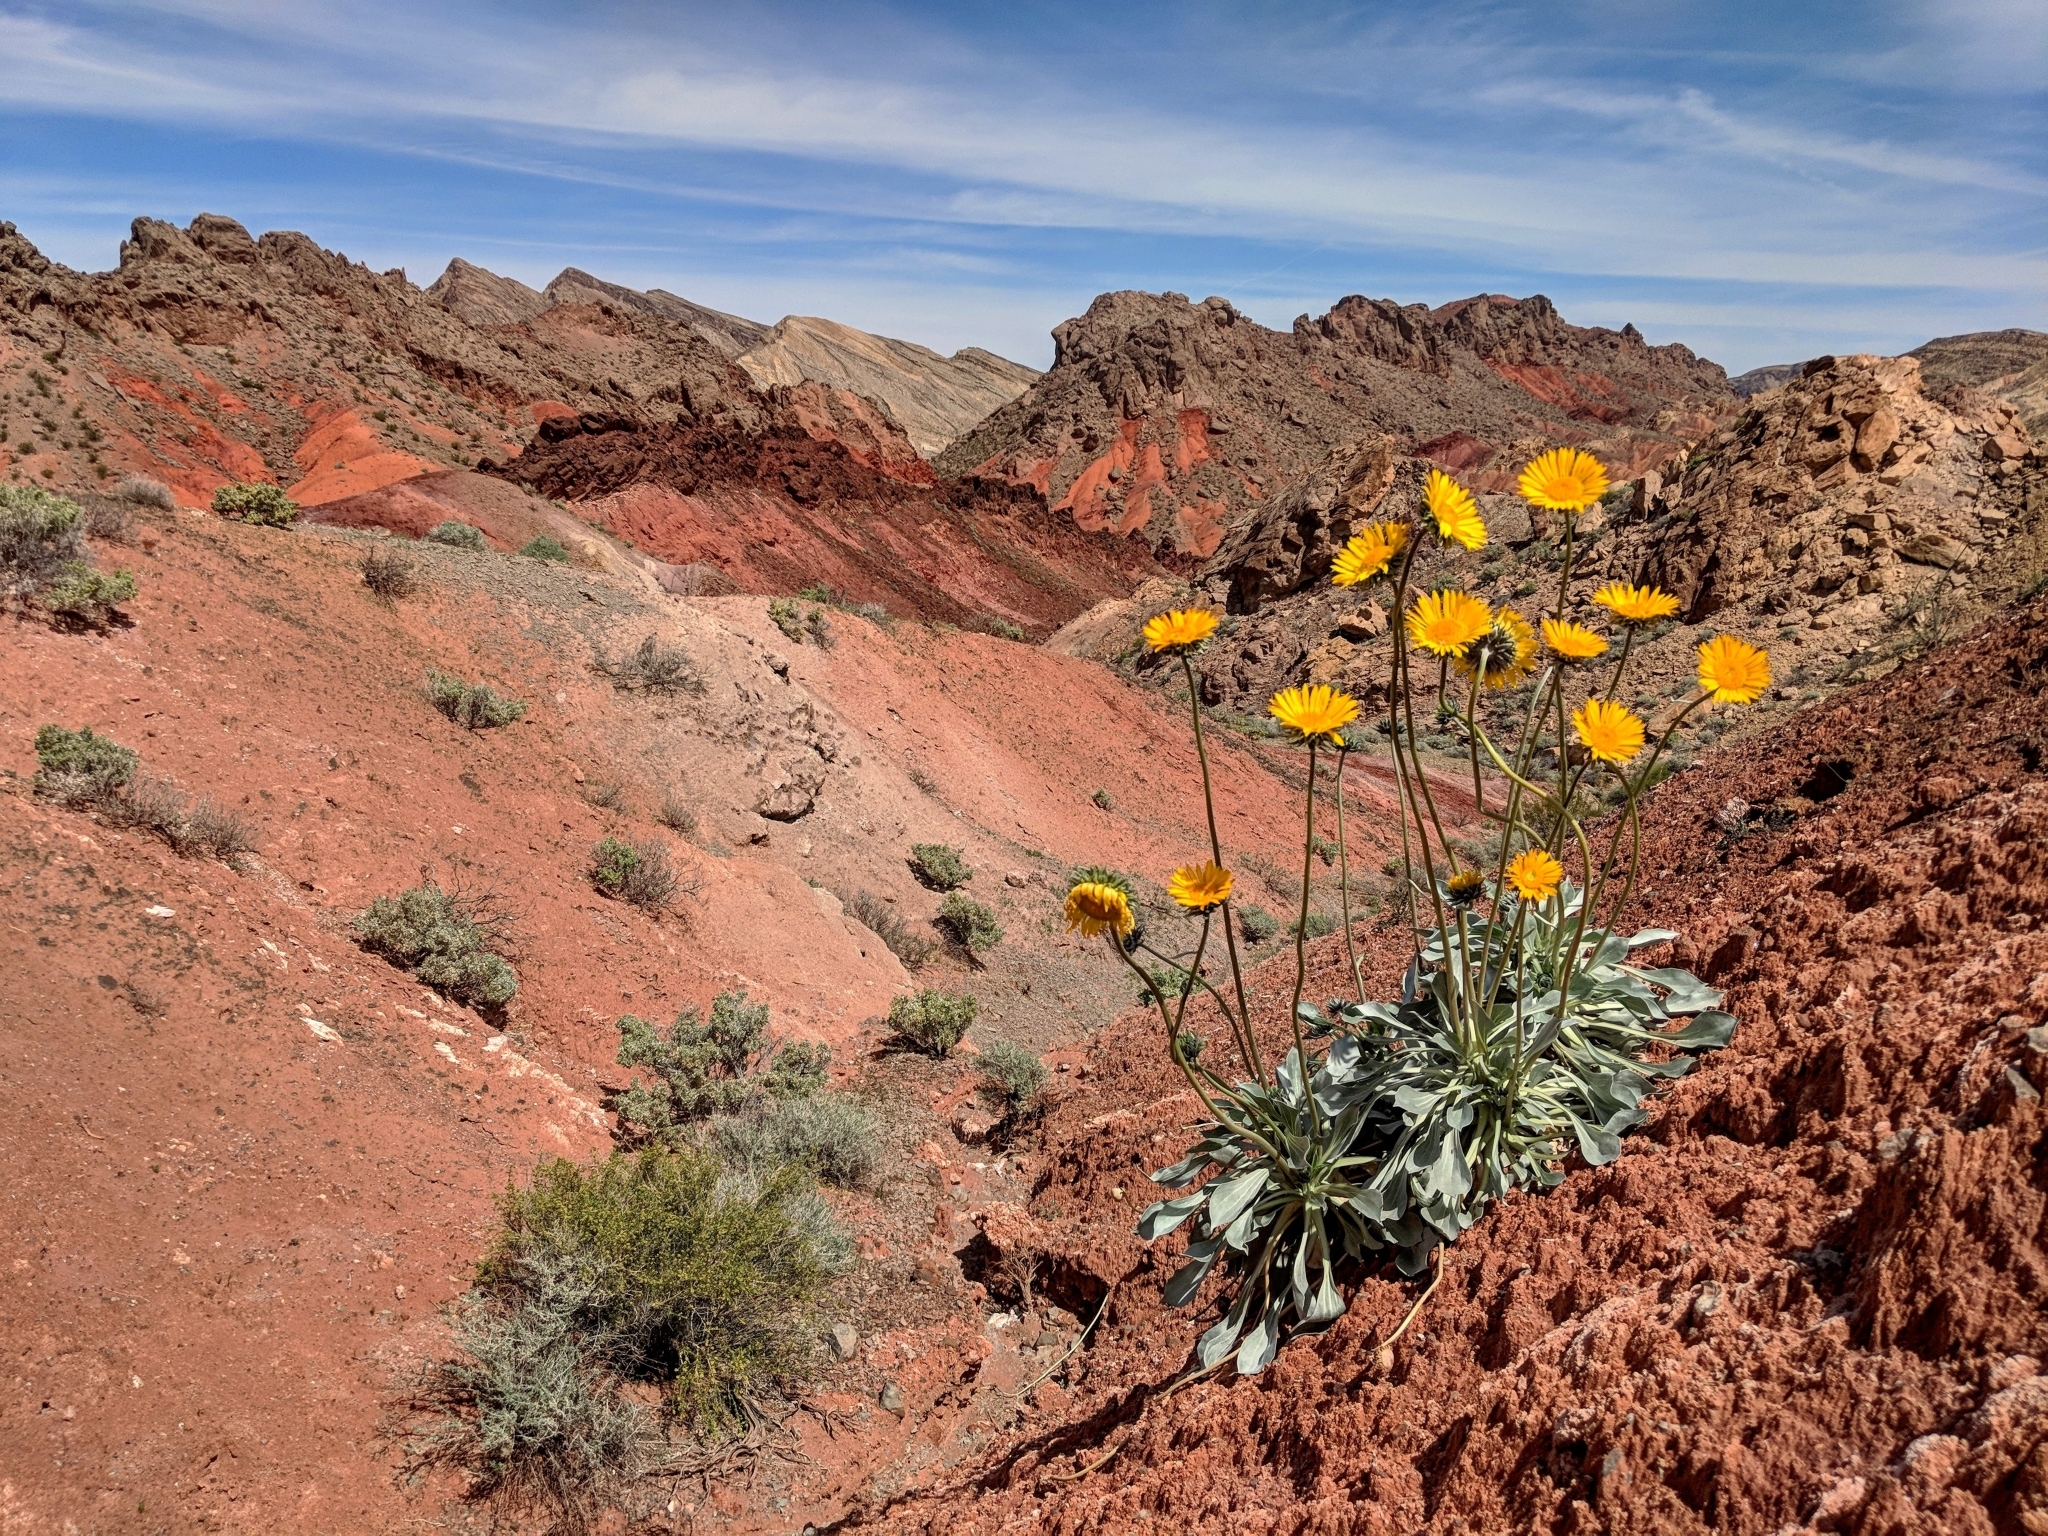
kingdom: Plantae
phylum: Tracheophyta
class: Magnoliopsida
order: Asterales
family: Asteraceae
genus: Enceliopsis
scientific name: Enceliopsis argophylla
